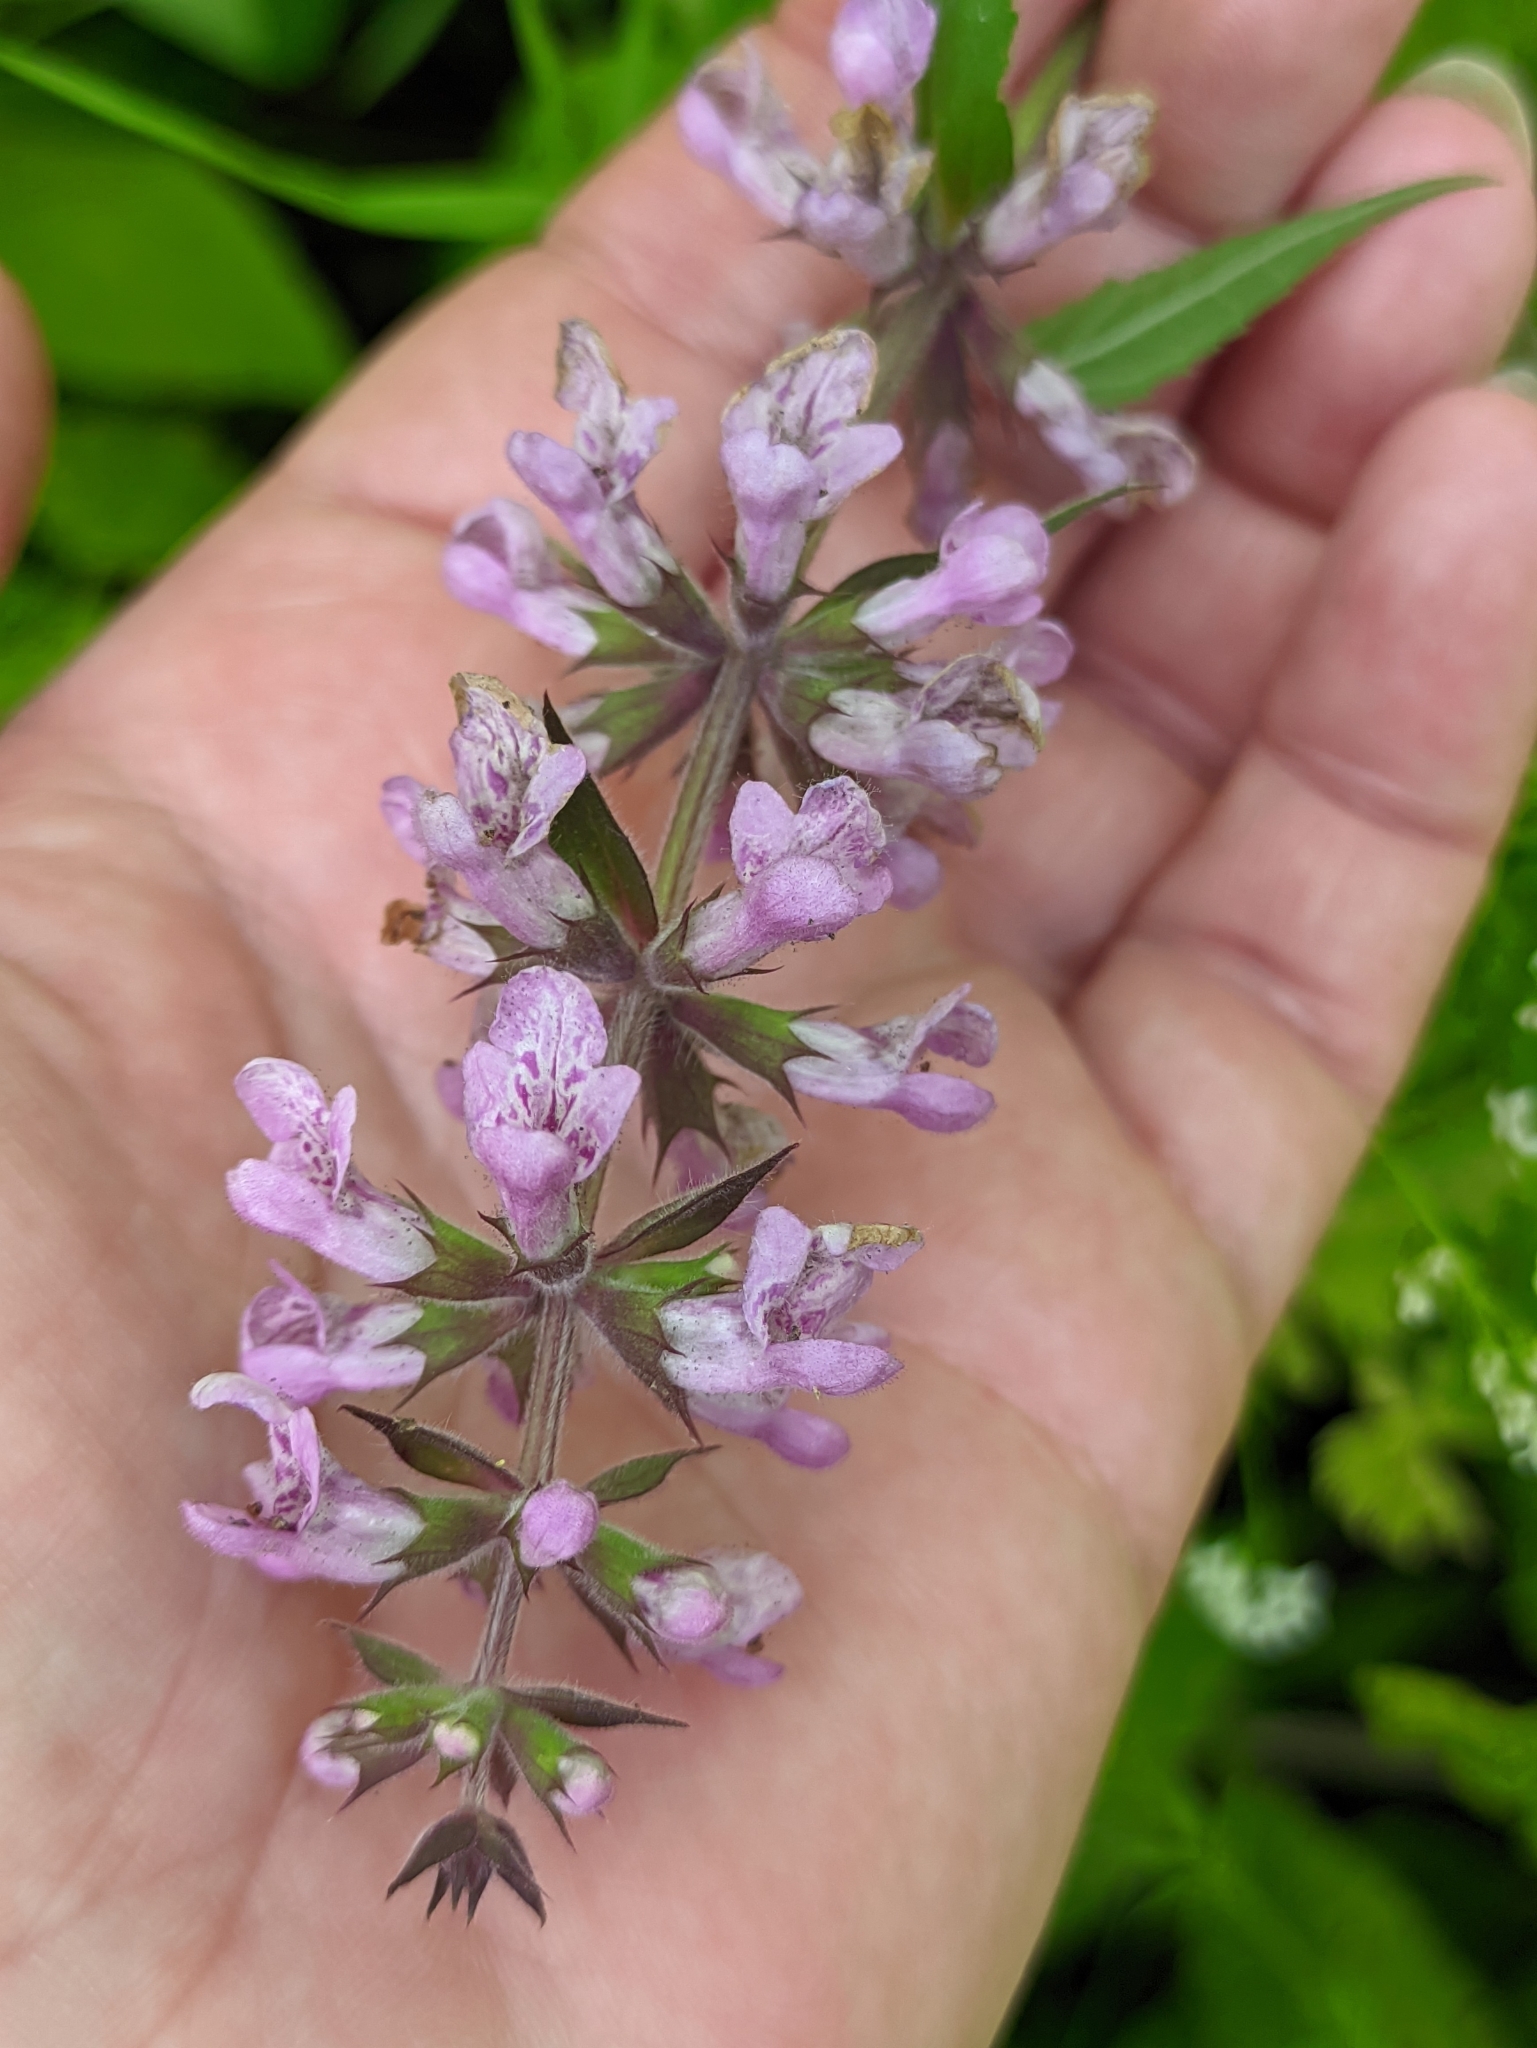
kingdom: Plantae
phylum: Tracheophyta
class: Magnoliopsida
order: Lamiales
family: Lamiaceae
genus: Stachys
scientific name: Stachys palustris
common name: Marsh woundwort
